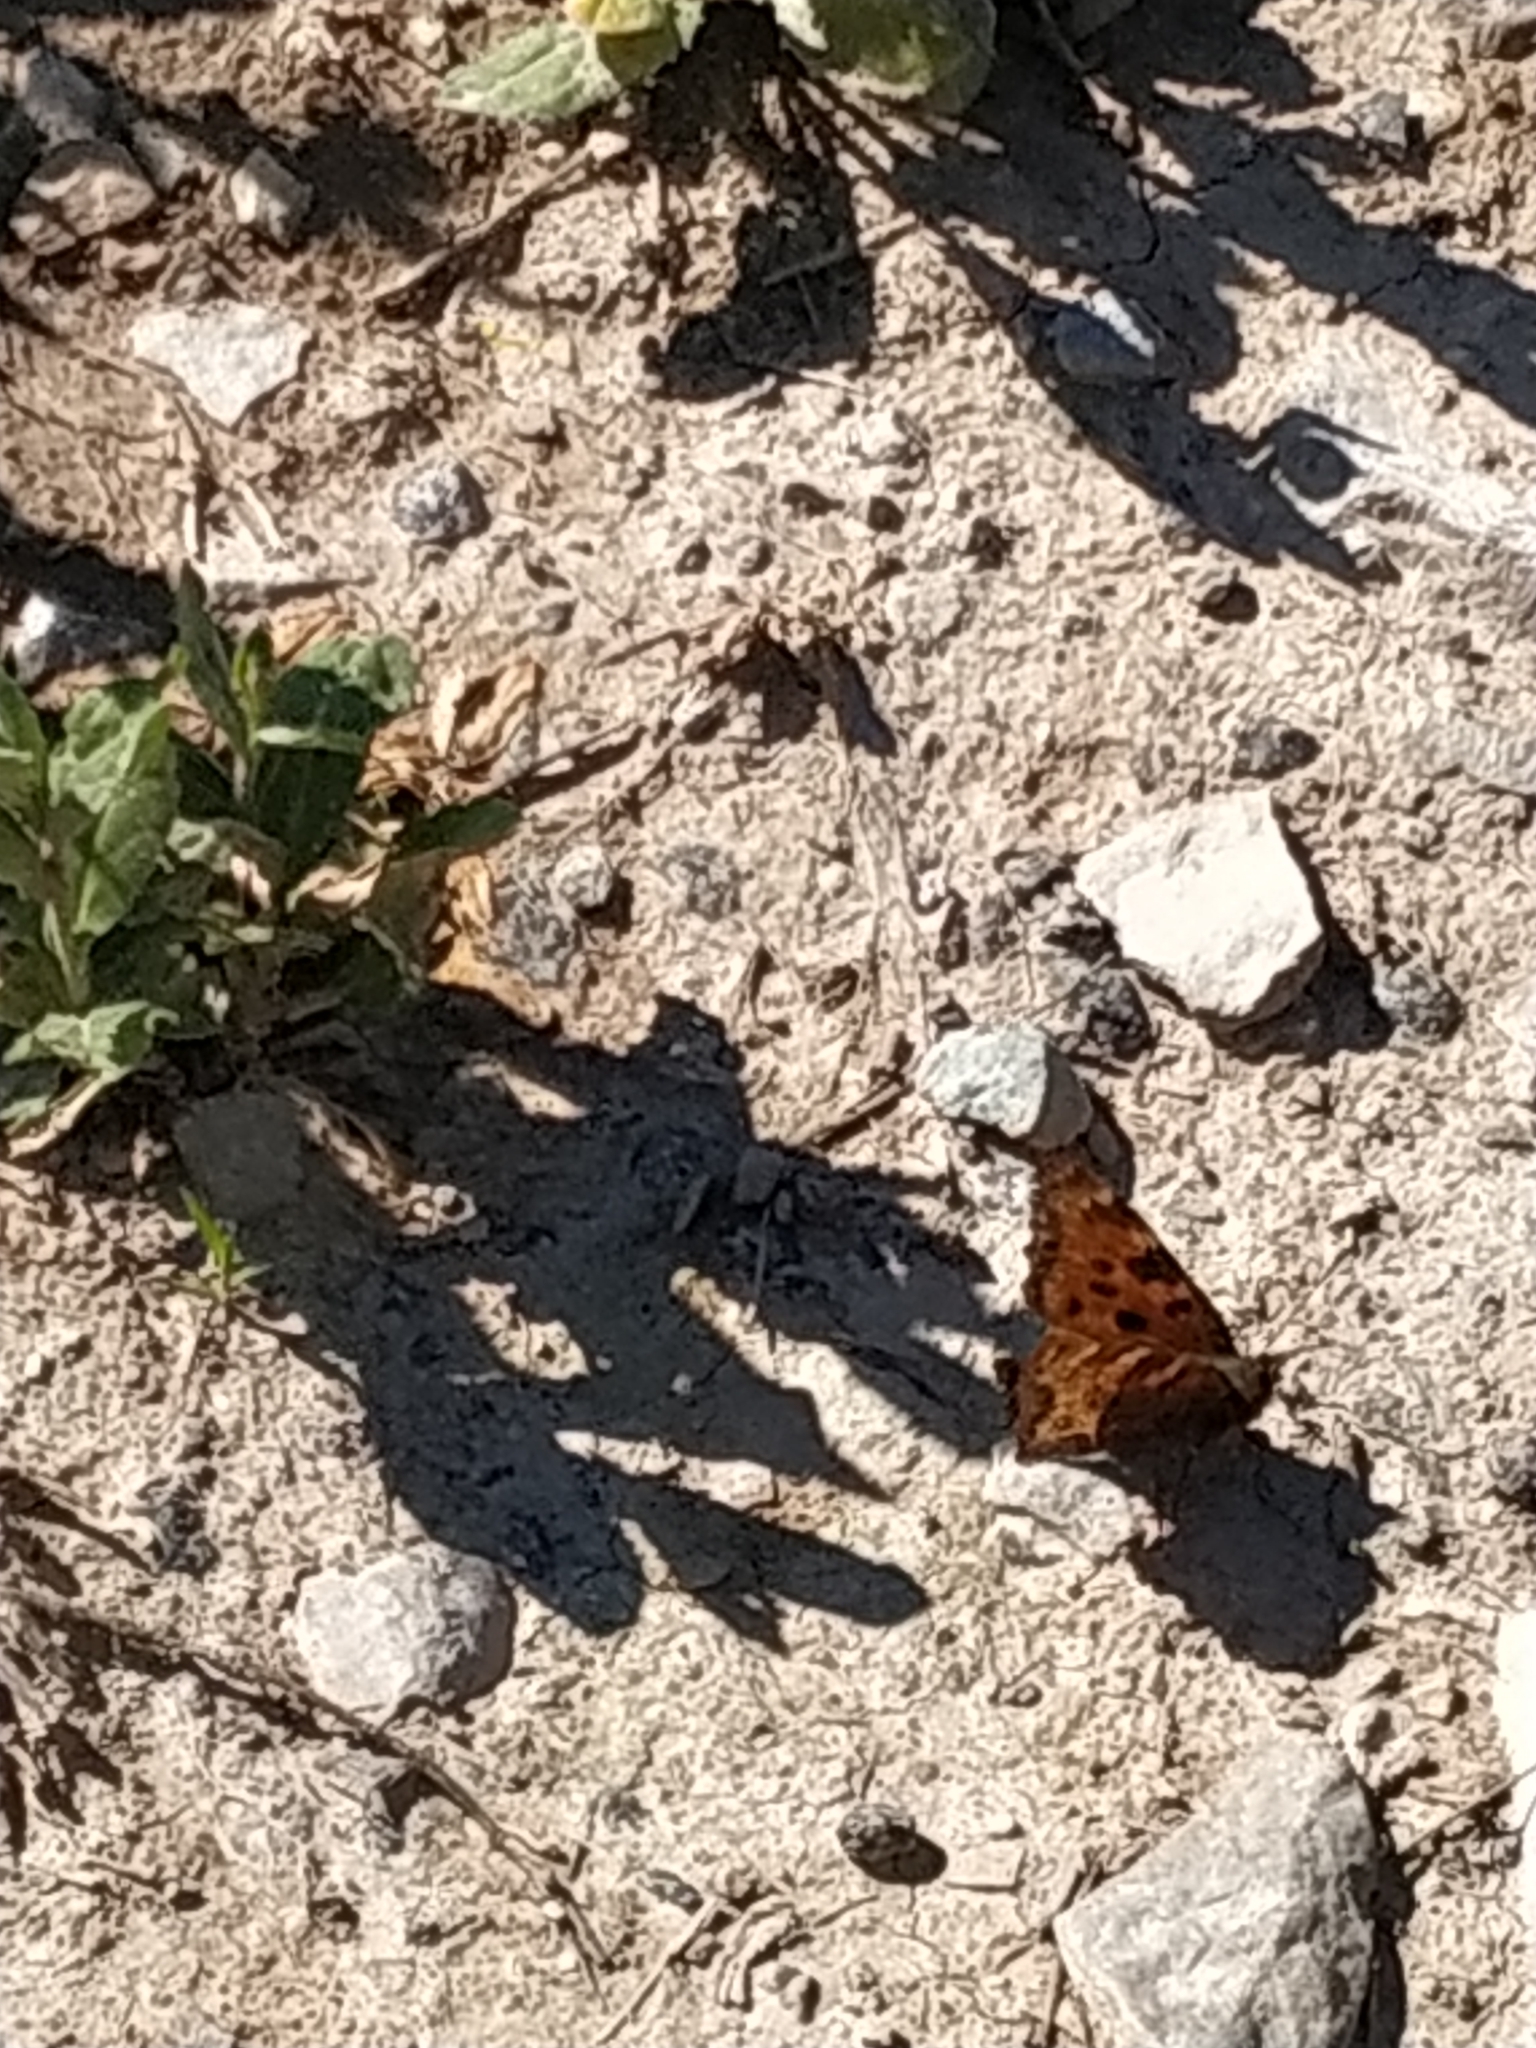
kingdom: Animalia
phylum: Arthropoda
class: Insecta
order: Lepidoptera
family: Nymphalidae
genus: Nymphalis
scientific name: Nymphalis polychloros
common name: Large tortoiseshell
